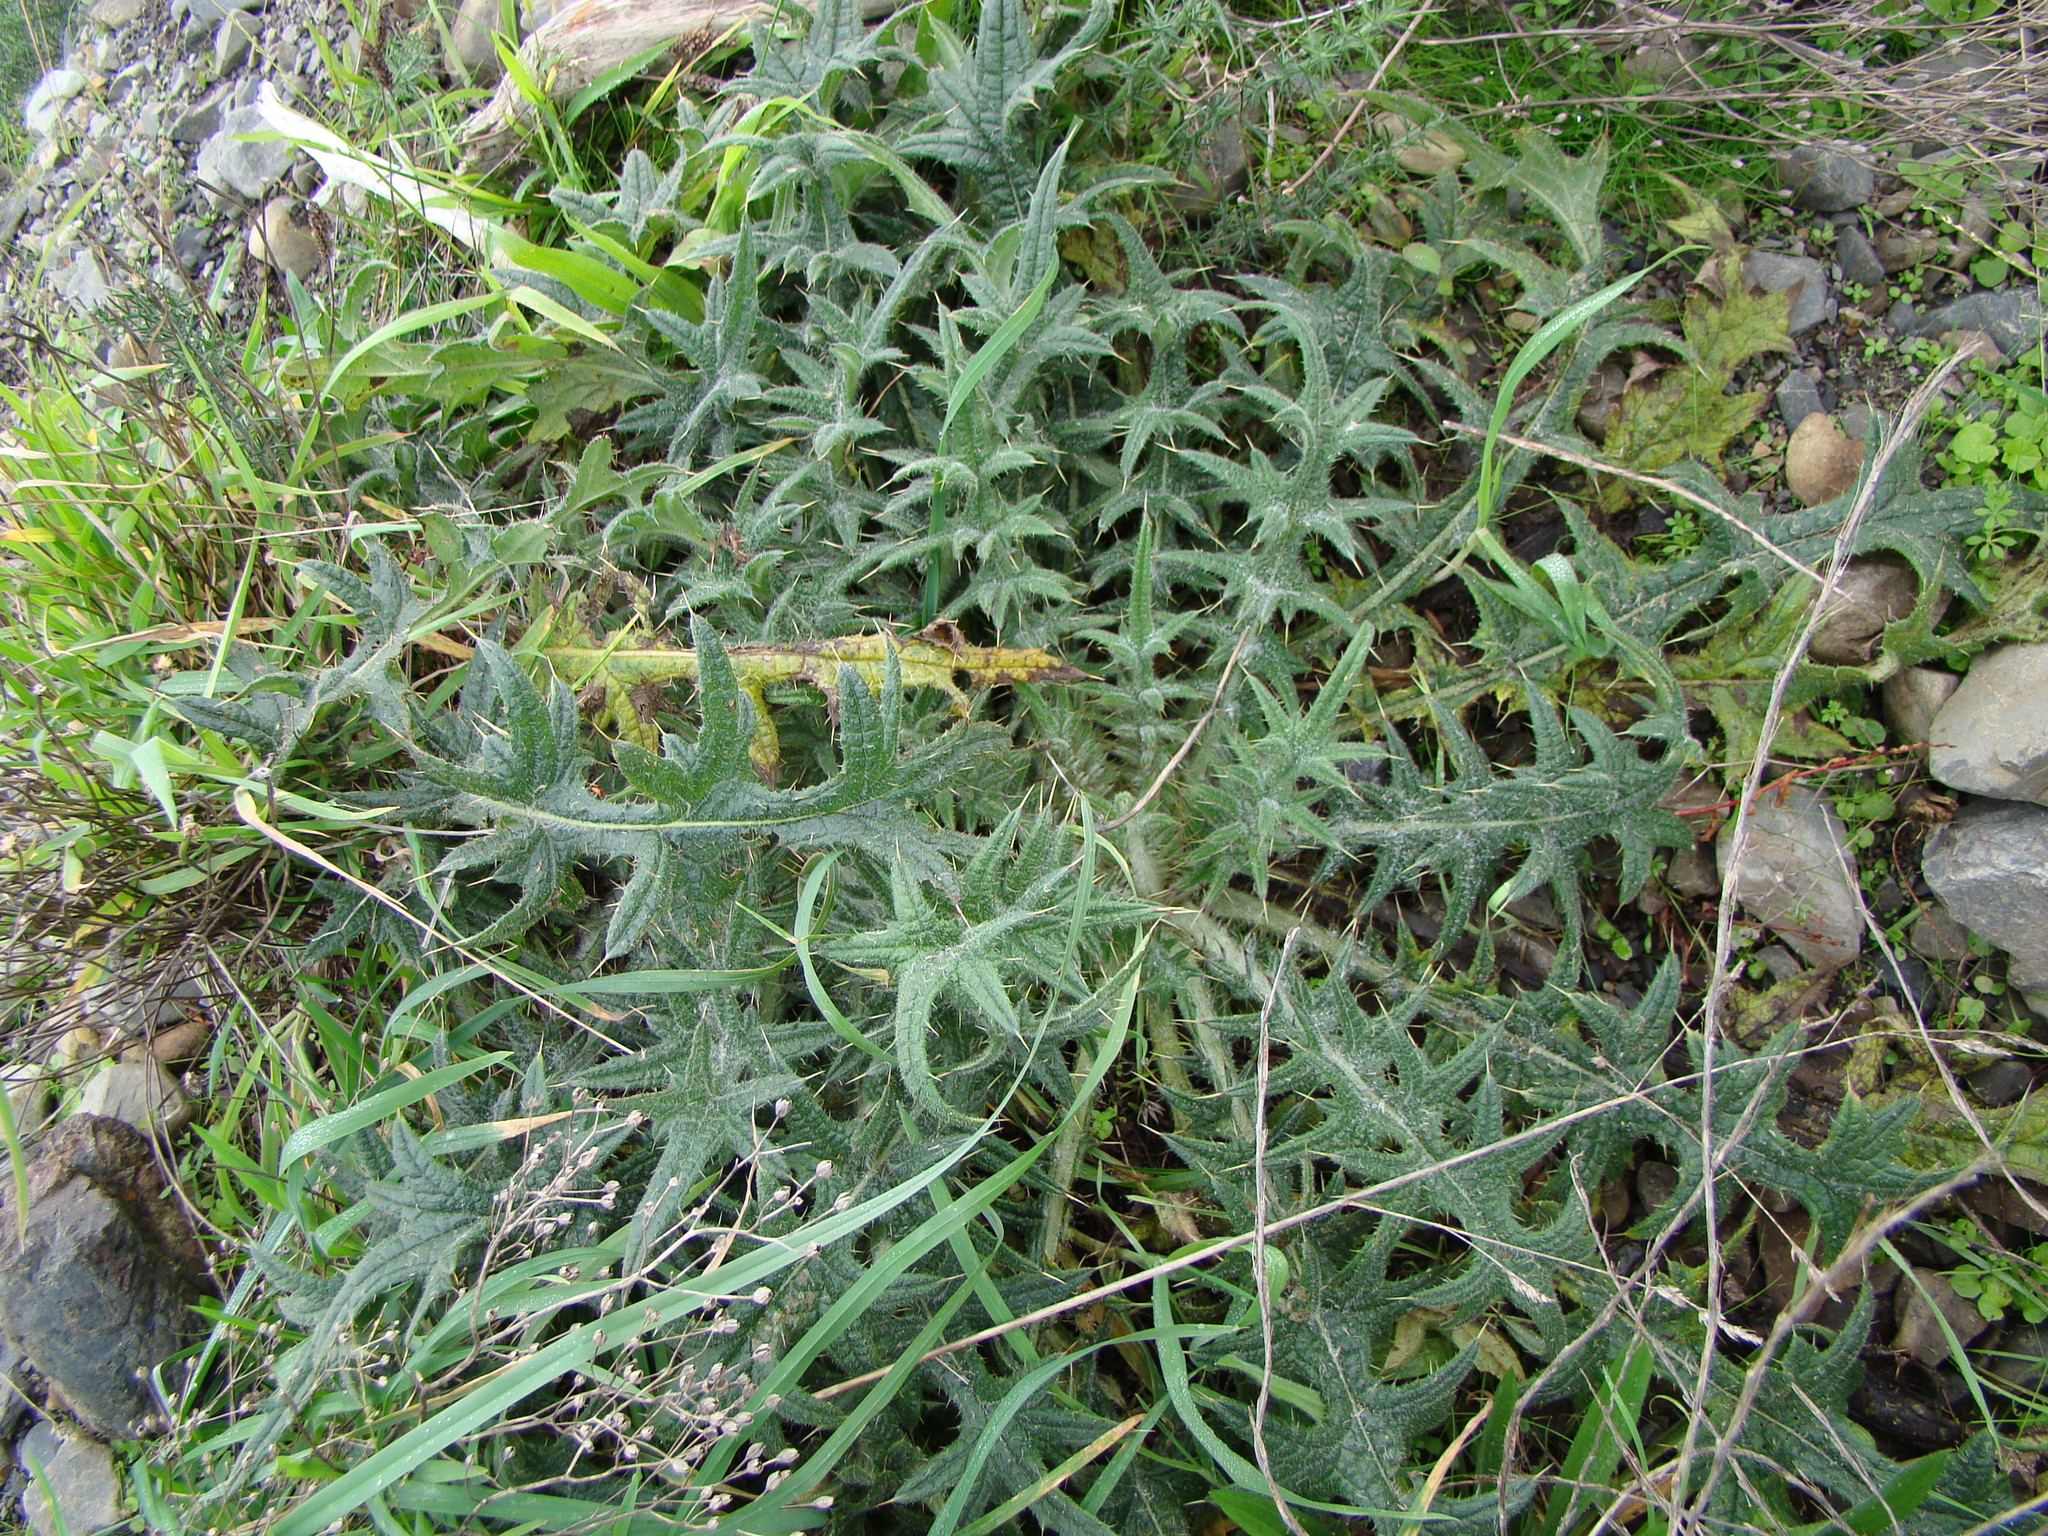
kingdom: Plantae
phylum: Tracheophyta
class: Magnoliopsida
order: Asterales
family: Asteraceae
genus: Cirsium
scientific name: Cirsium vulgare
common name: Bull thistle
